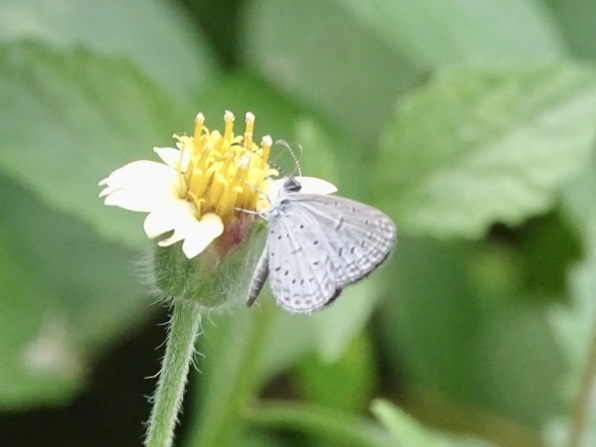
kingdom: Animalia
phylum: Arthropoda
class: Insecta
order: Lepidoptera
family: Lycaenidae
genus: Zizula
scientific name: Zizula hylax
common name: Gaika blue
